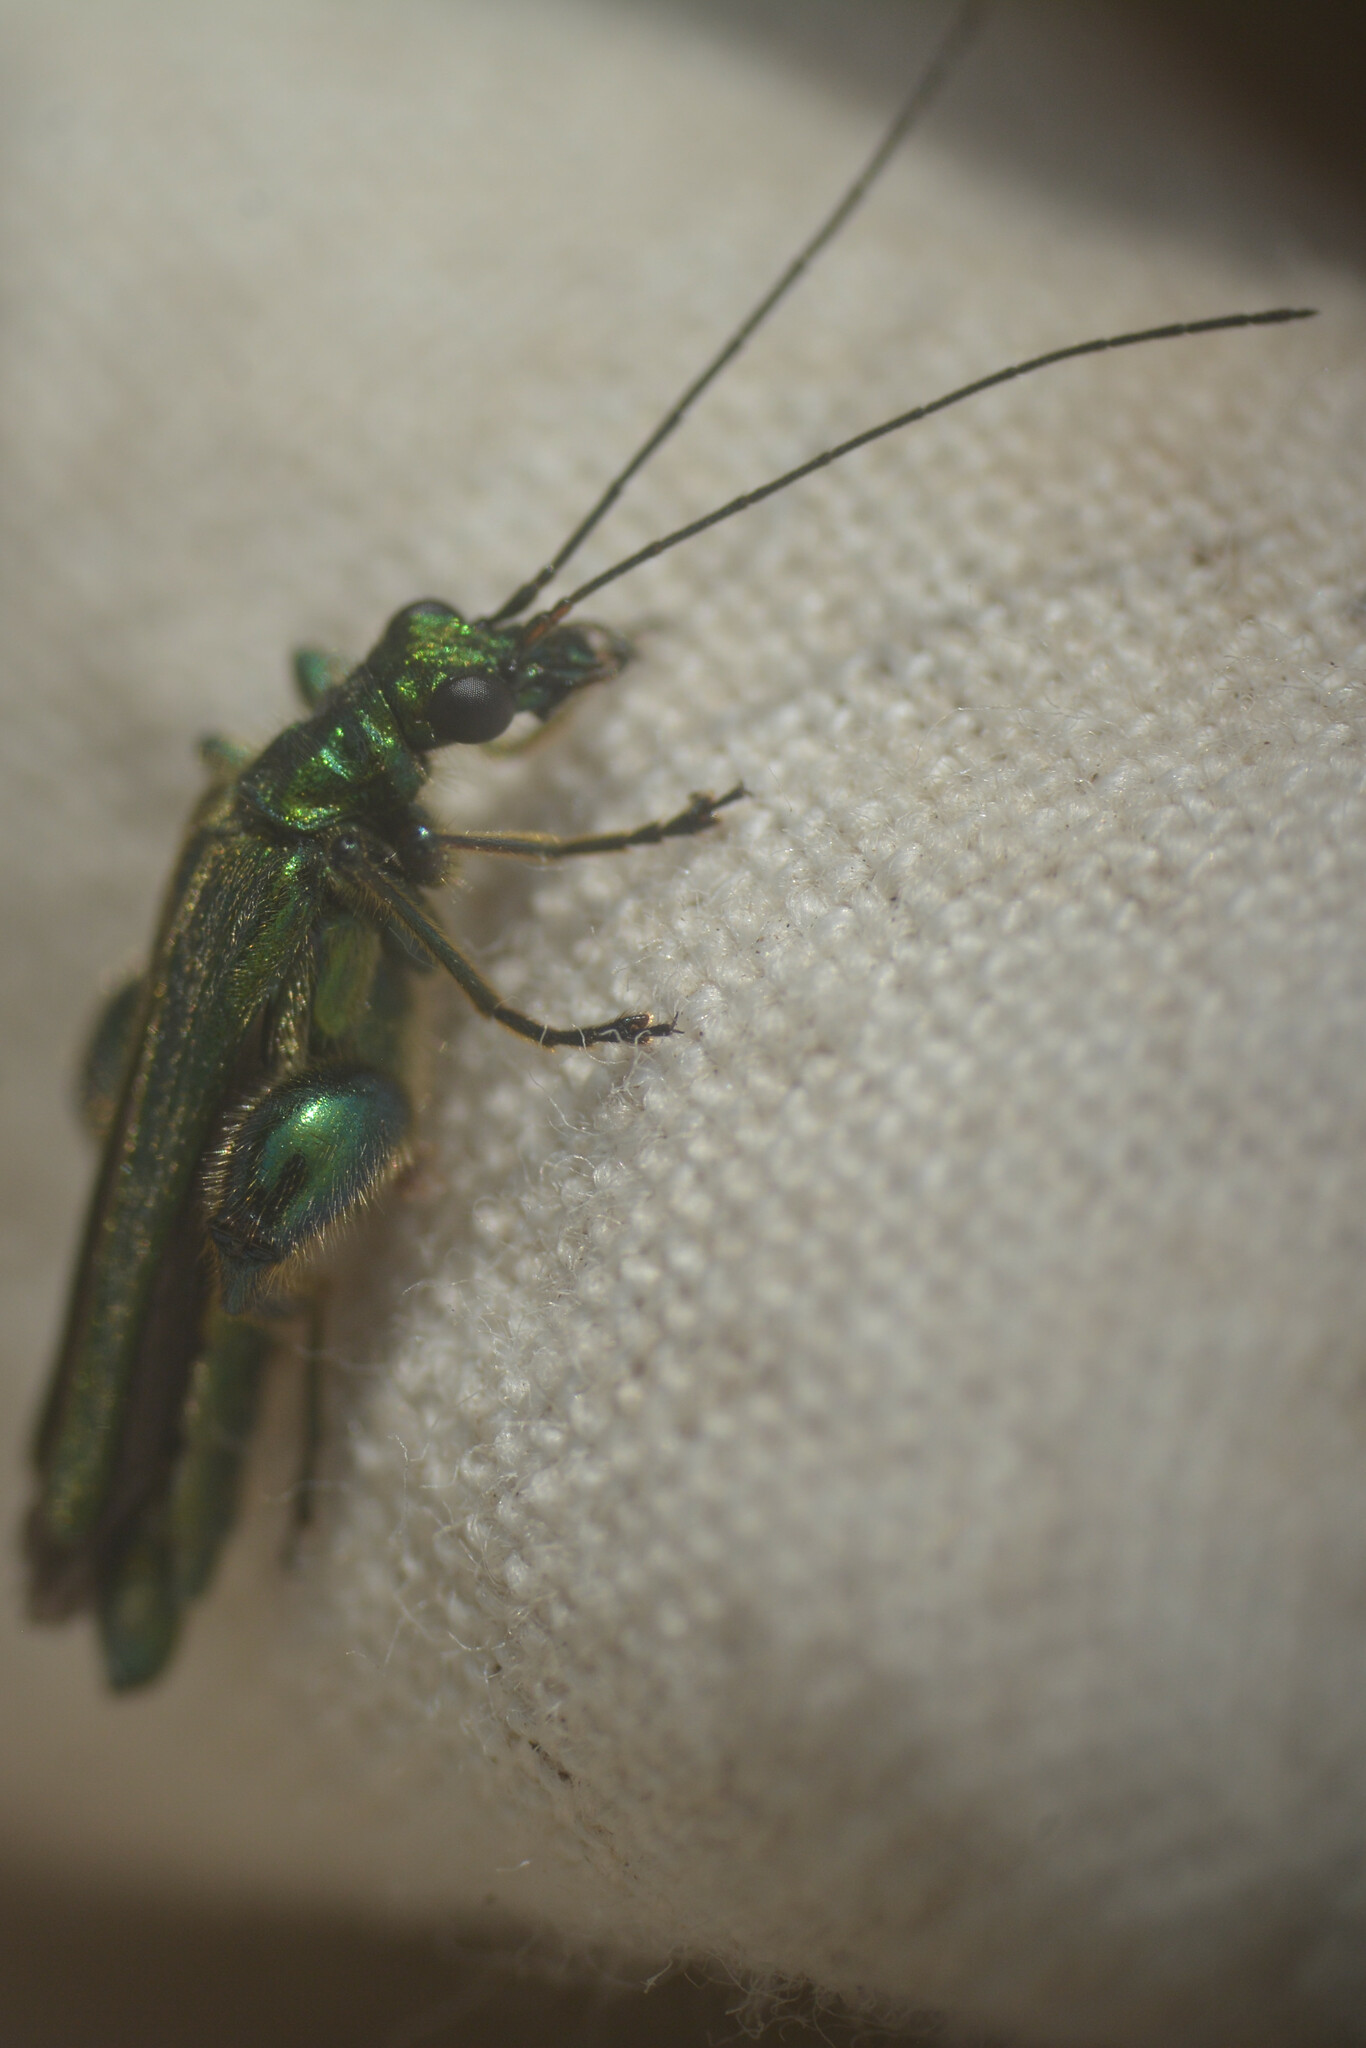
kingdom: Animalia
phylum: Arthropoda
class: Insecta
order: Coleoptera
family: Oedemeridae
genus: Oedemera
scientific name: Oedemera nobilis
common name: Swollen-thighed beetle
